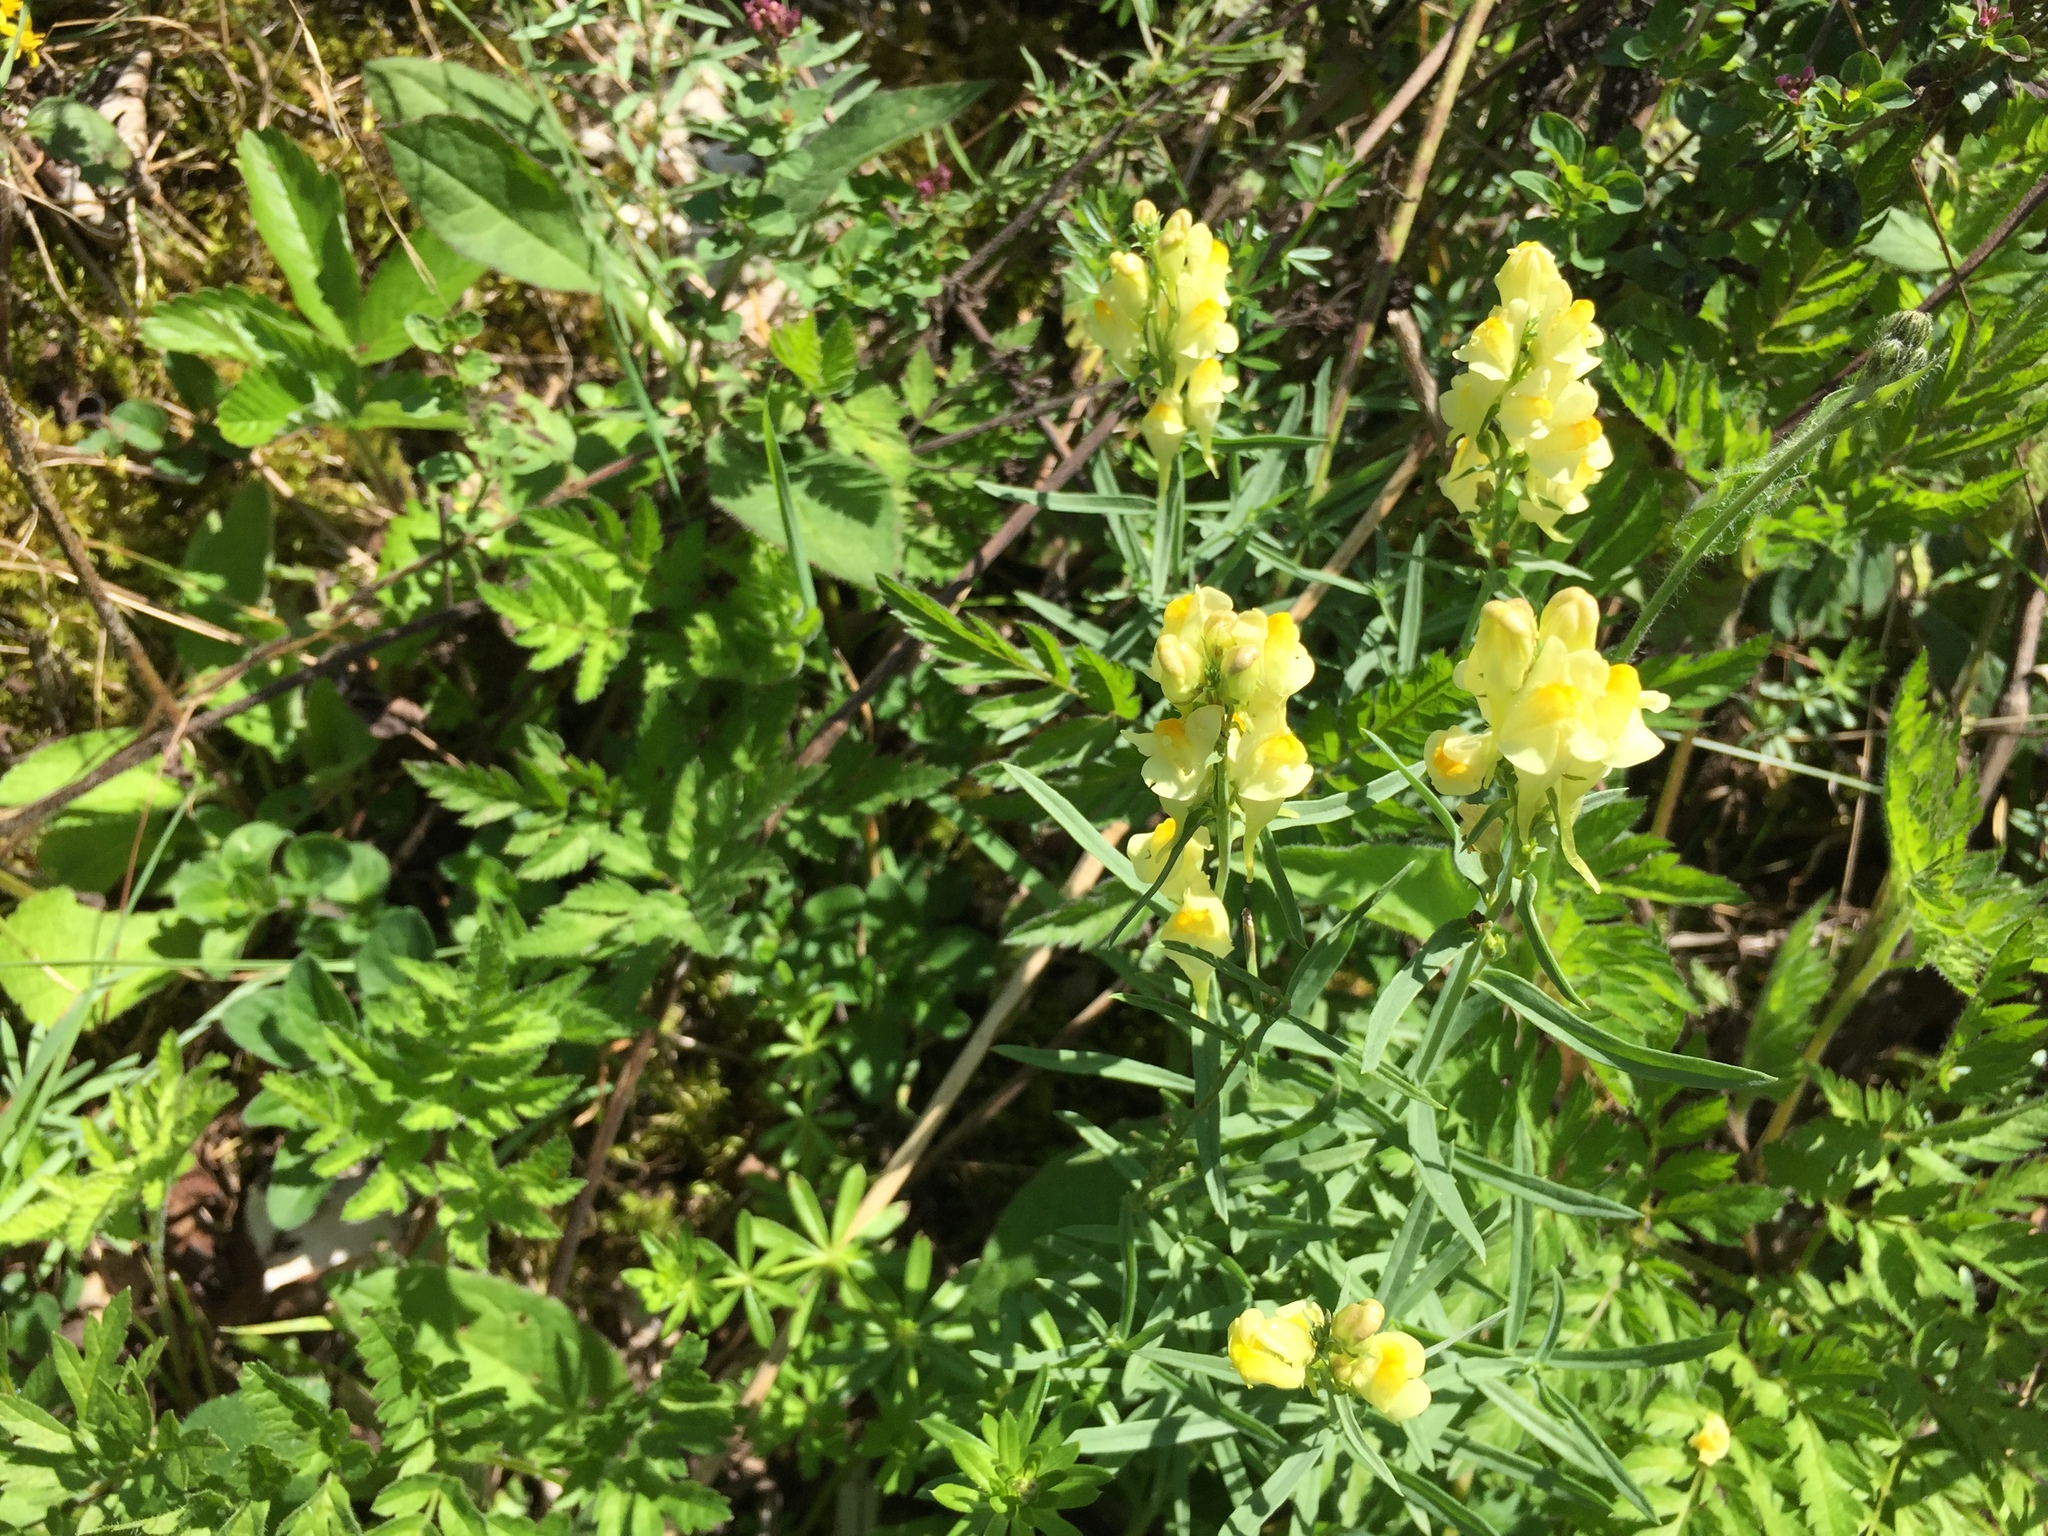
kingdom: Plantae
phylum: Tracheophyta
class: Magnoliopsida
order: Lamiales
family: Plantaginaceae
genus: Linaria
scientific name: Linaria vulgaris
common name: Butter and eggs
